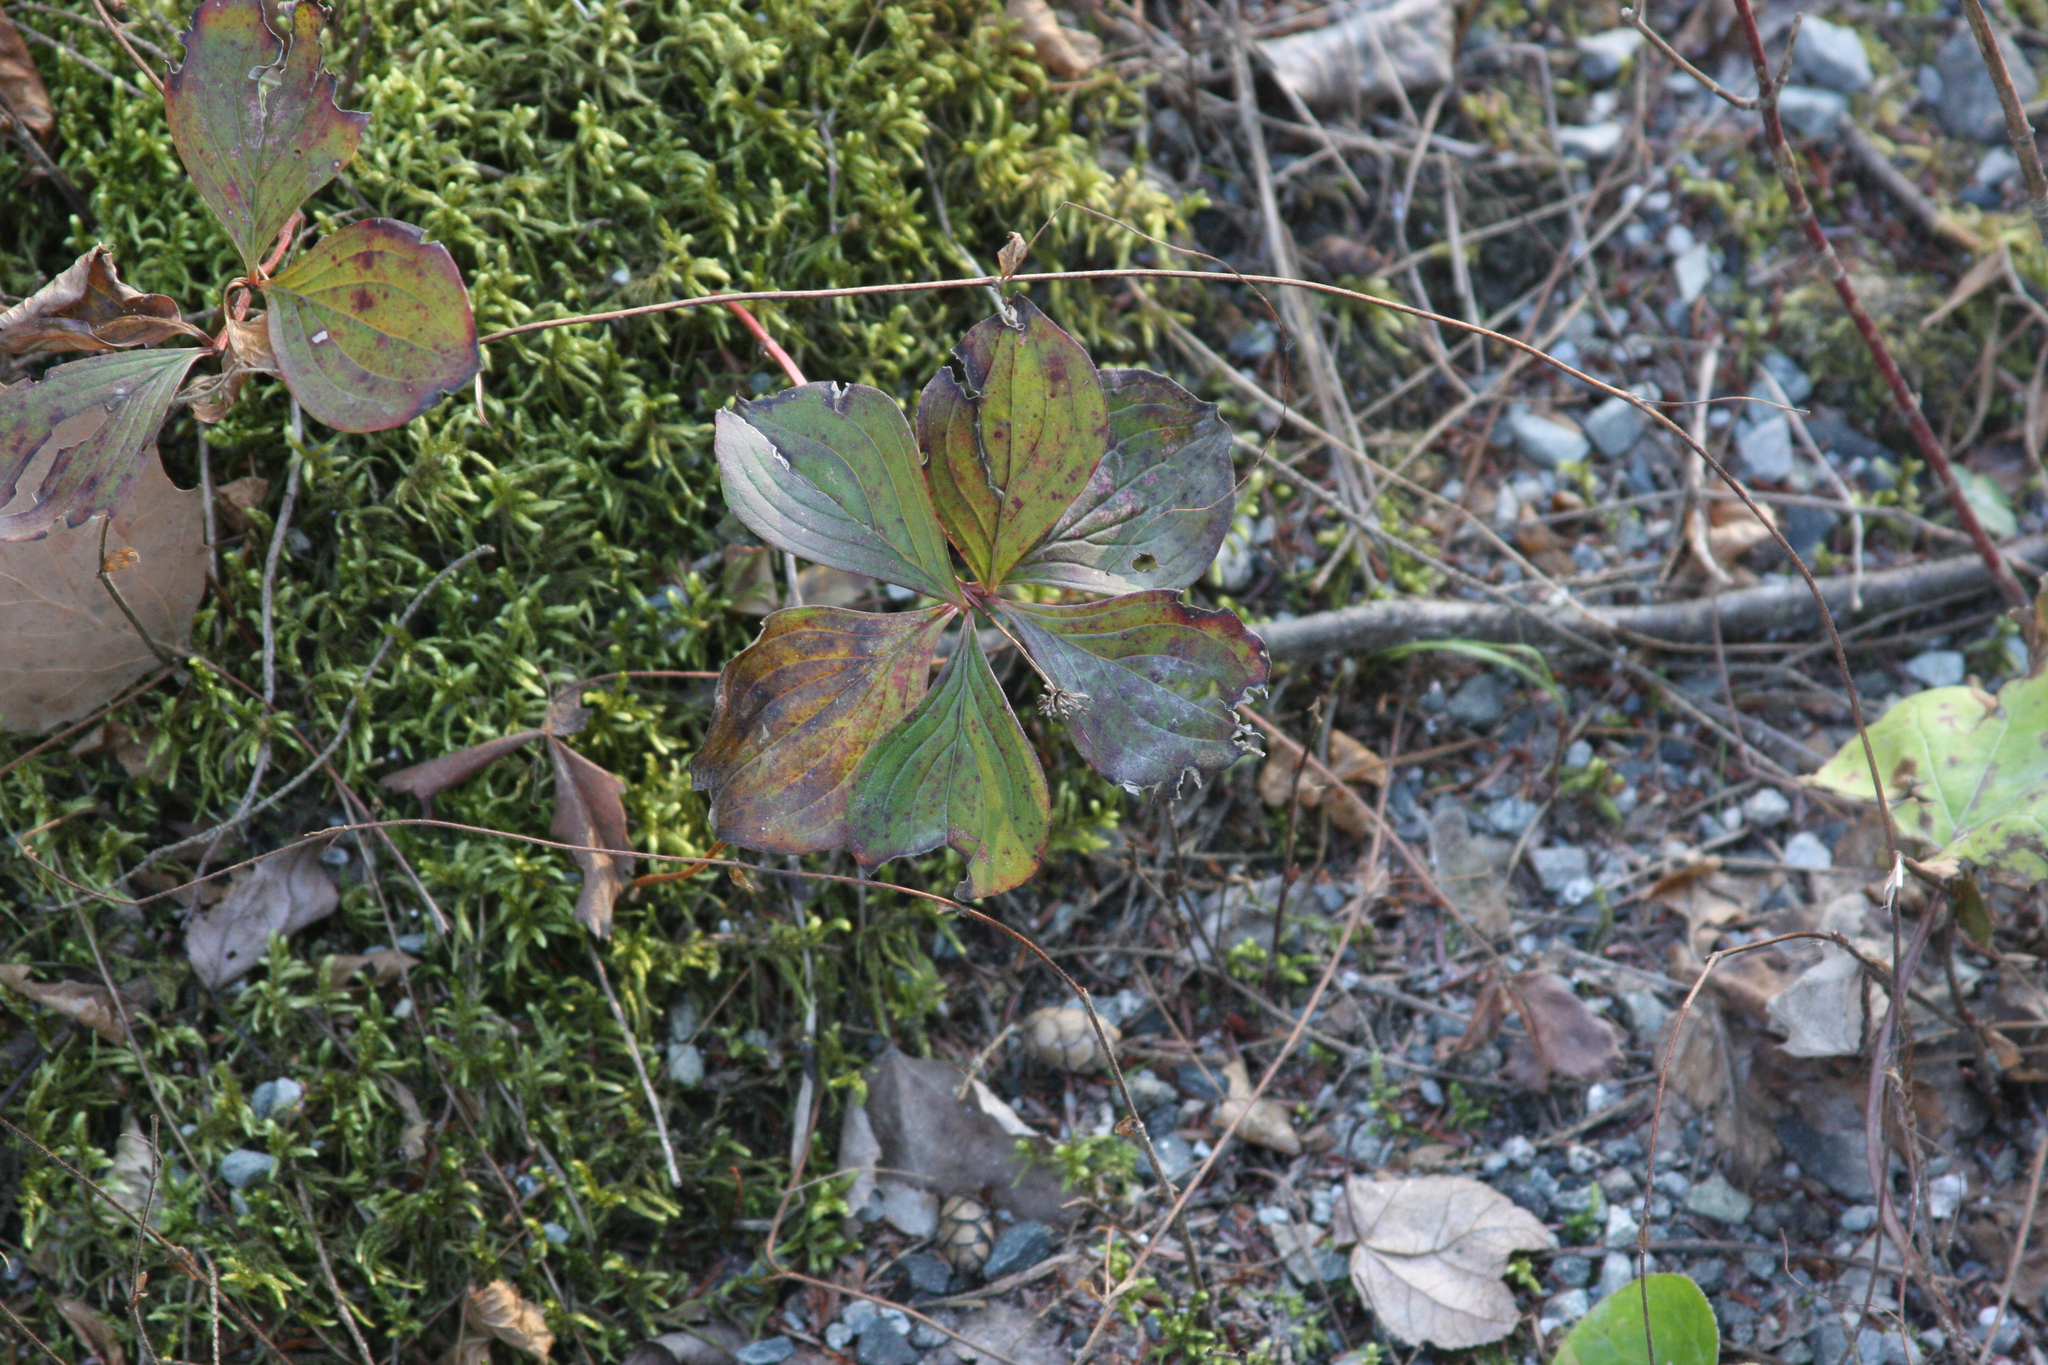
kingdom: Plantae
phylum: Tracheophyta
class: Magnoliopsida
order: Cornales
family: Cornaceae
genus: Cornus
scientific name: Cornus canadensis
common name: Creeping dogwood
